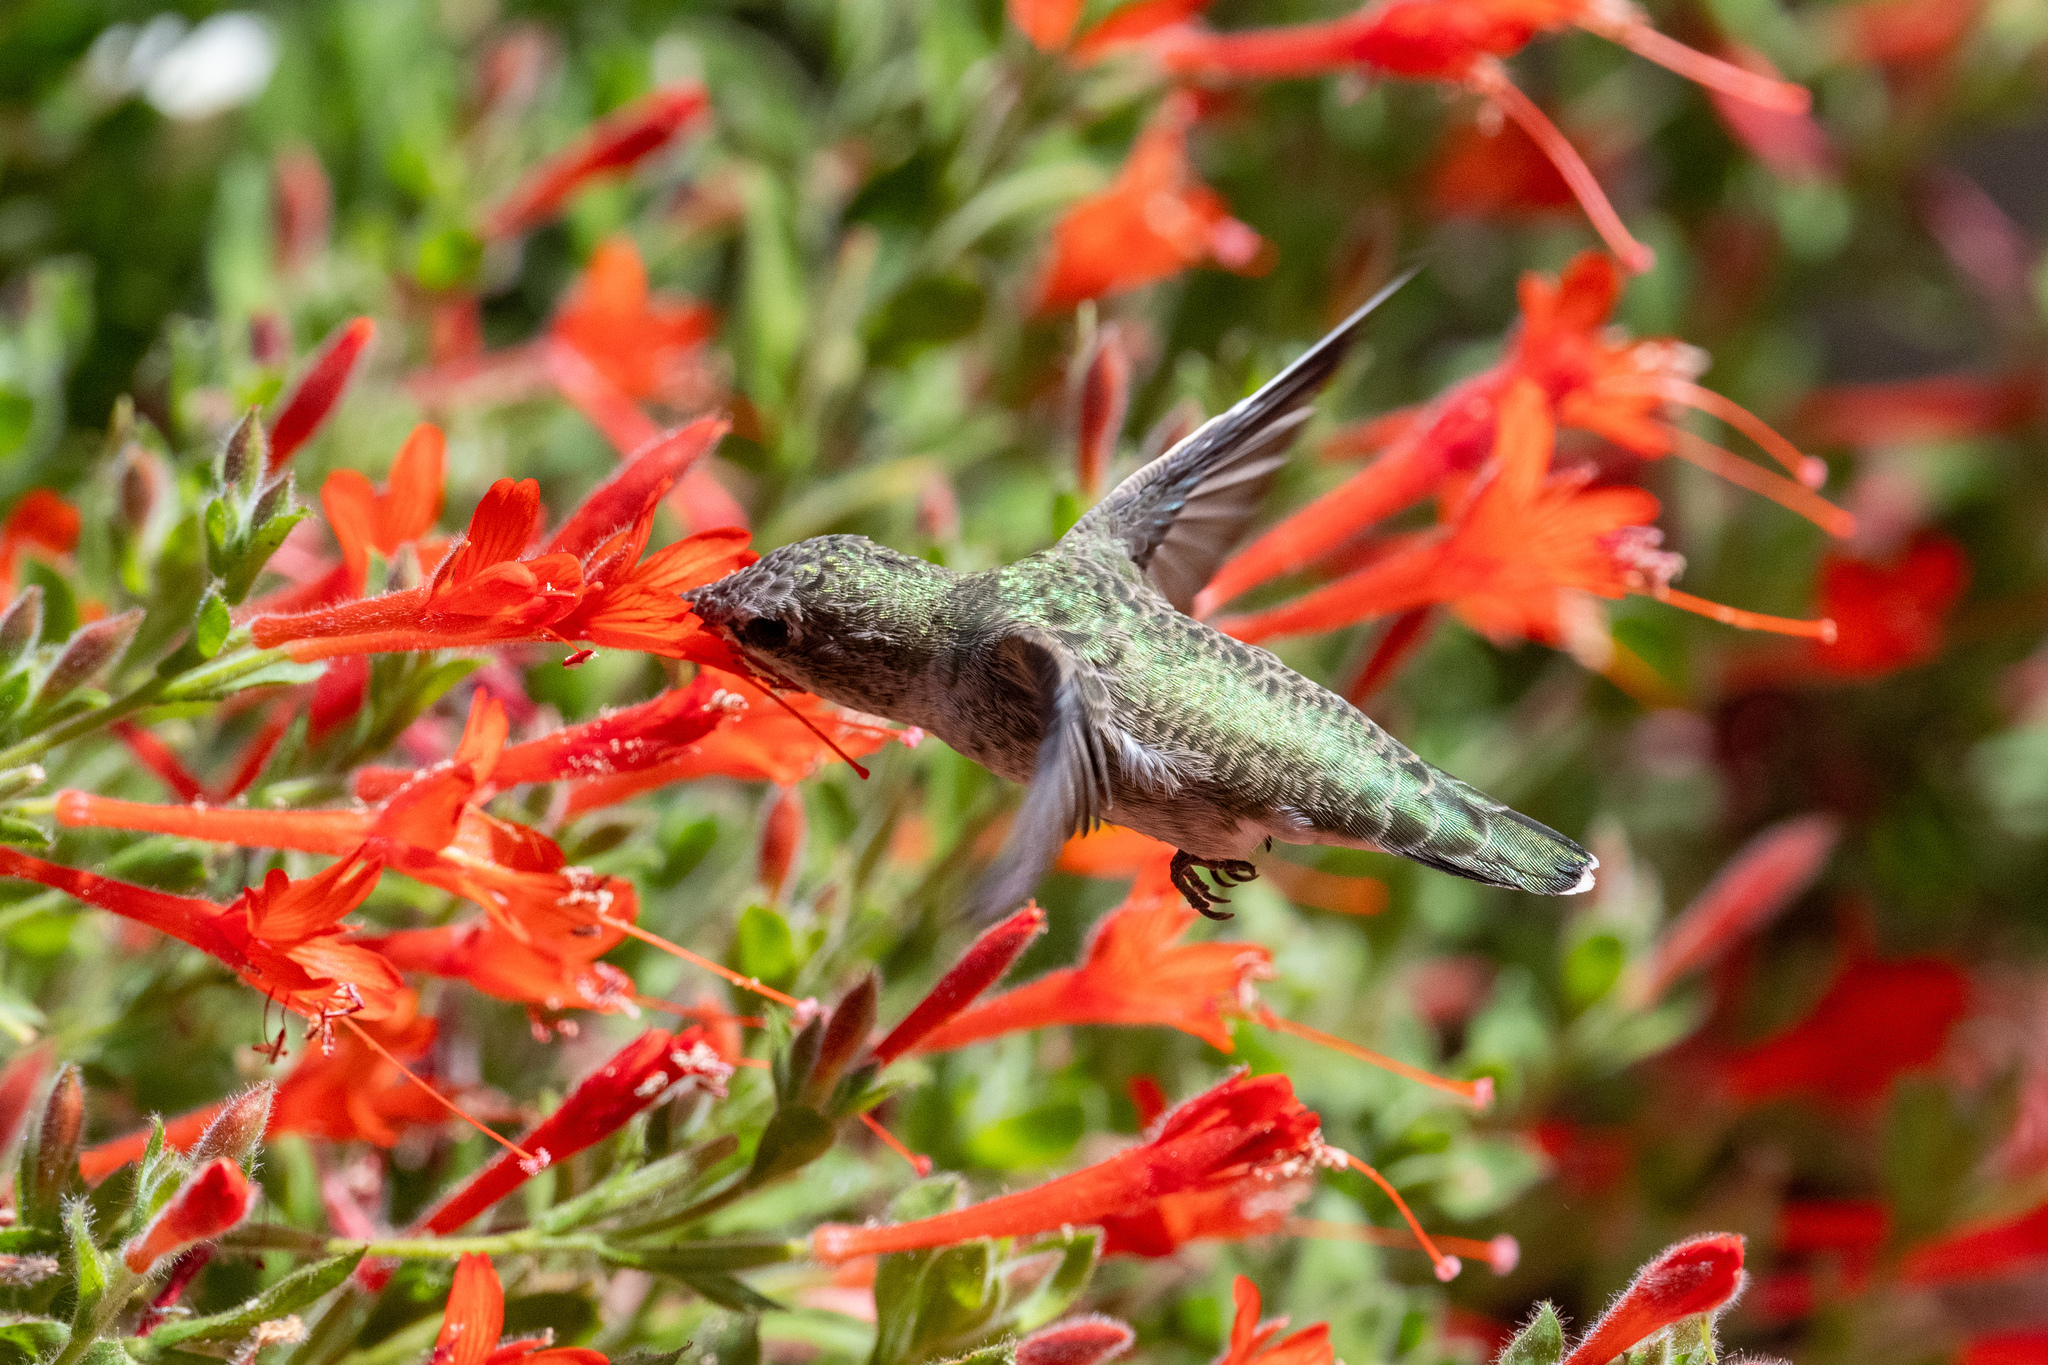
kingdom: Animalia
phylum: Chordata
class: Aves
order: Apodiformes
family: Trochilidae
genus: Calypte
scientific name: Calypte anna
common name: Anna's hummingbird
